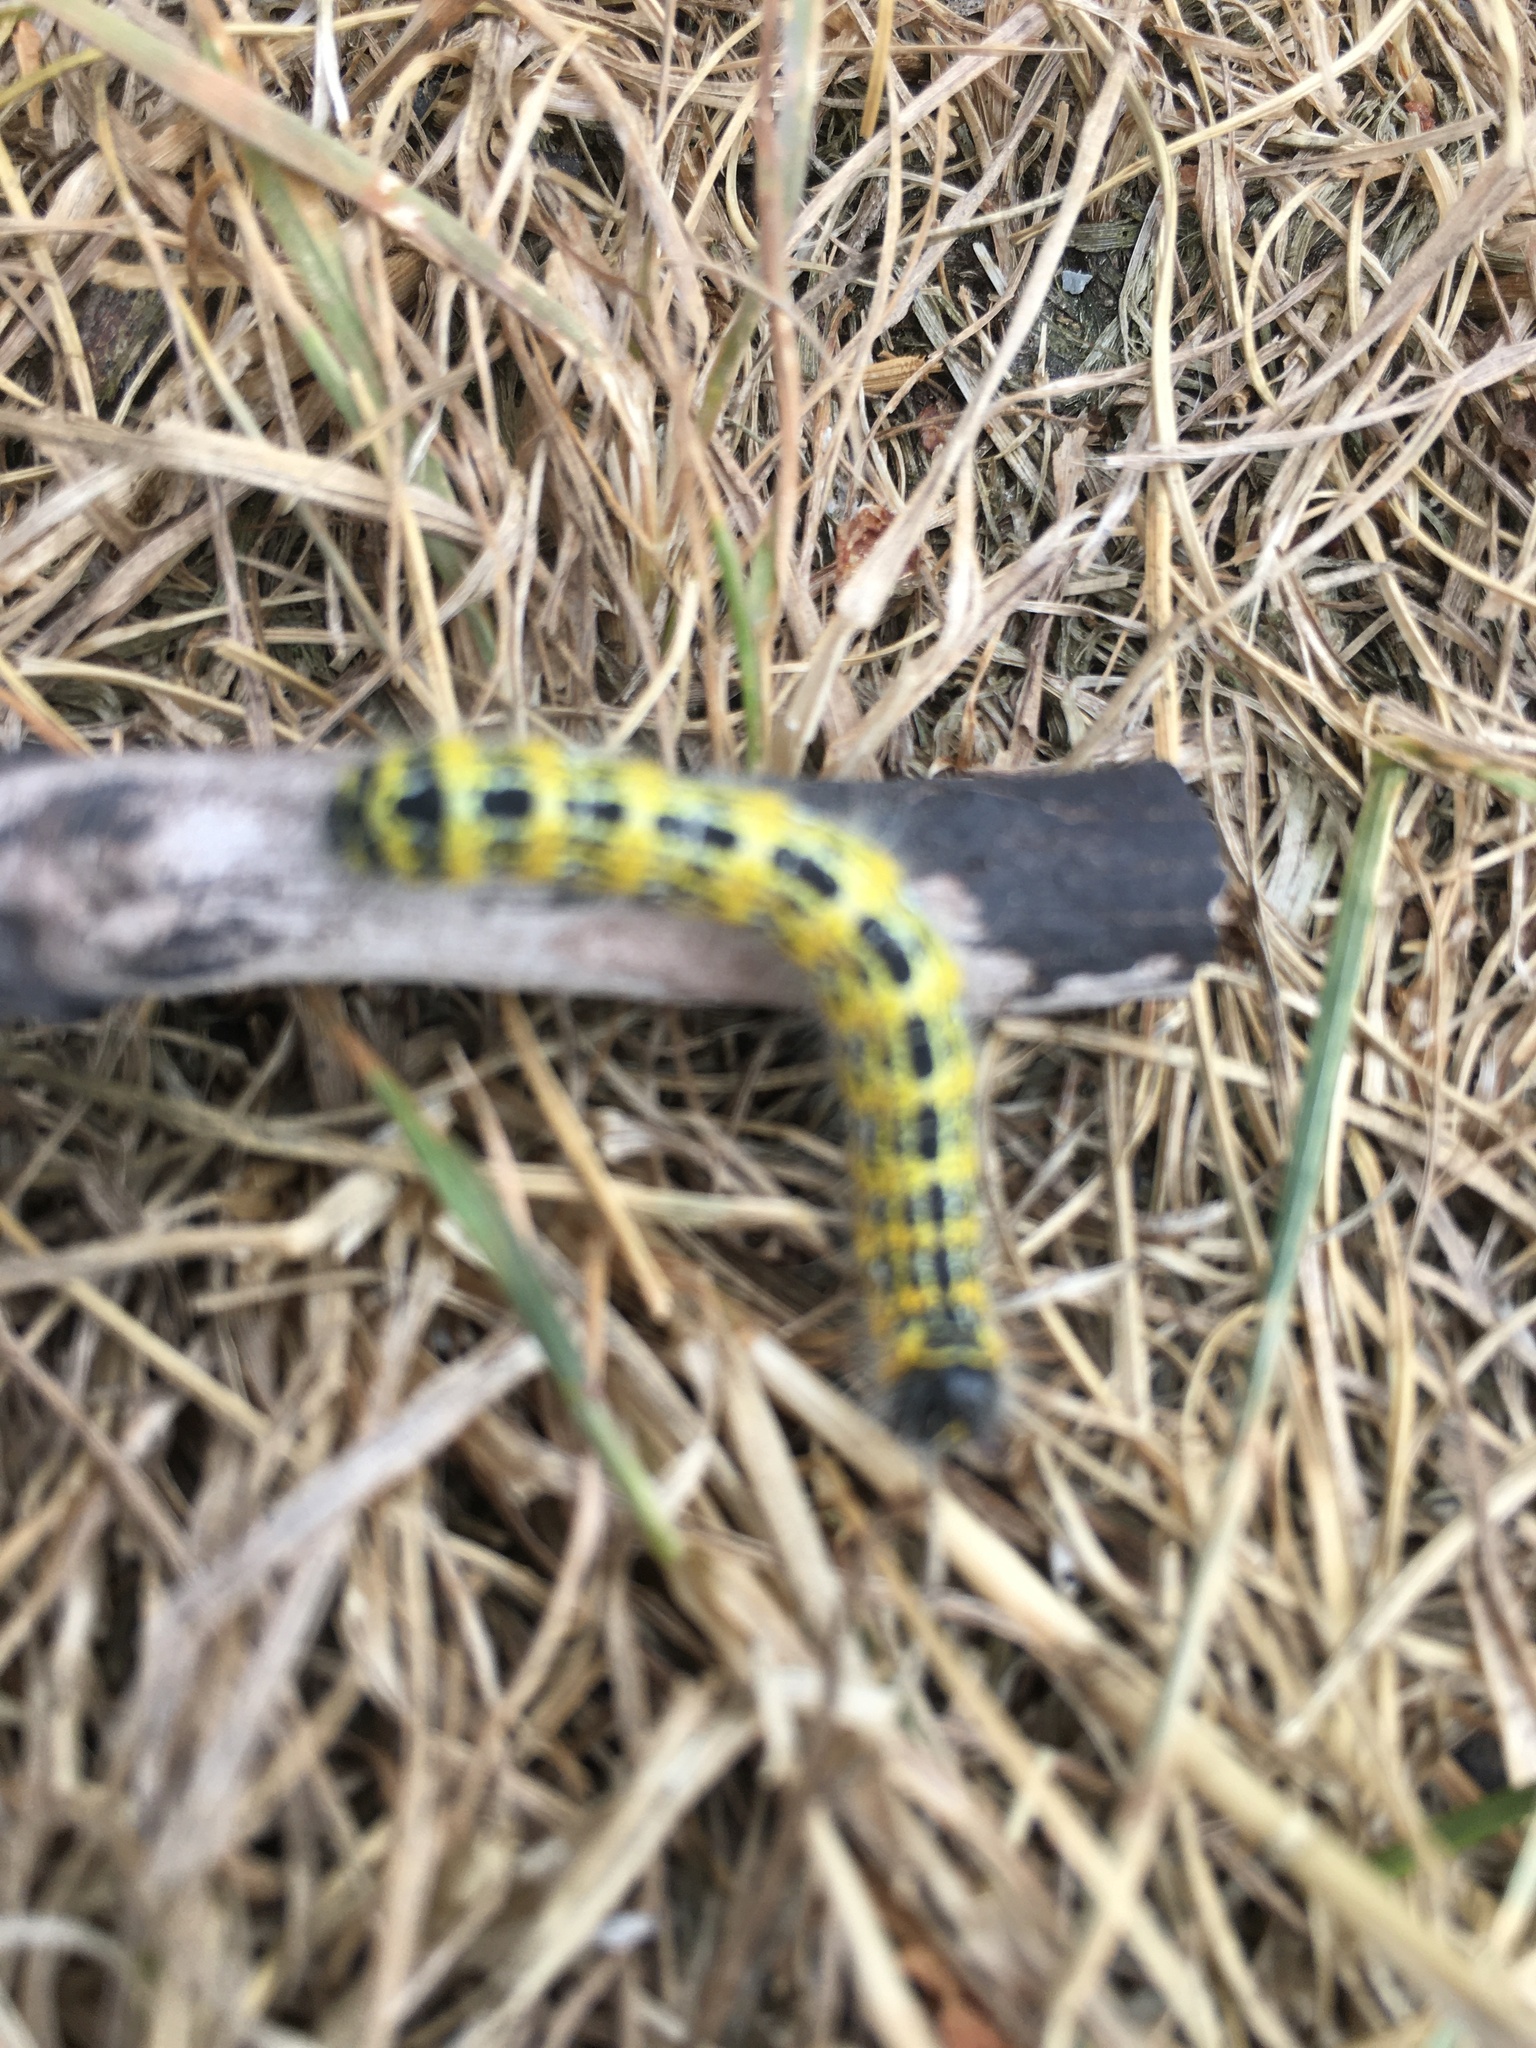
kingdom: Animalia
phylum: Arthropoda
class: Insecta
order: Lepidoptera
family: Notodontidae
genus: Phalera
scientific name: Phalera bucephala
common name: Buff-tip
